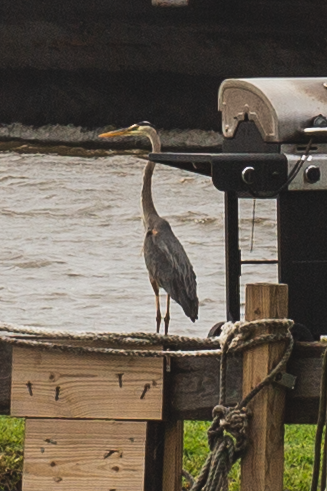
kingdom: Animalia
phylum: Chordata
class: Aves
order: Pelecaniformes
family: Ardeidae
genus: Ardea
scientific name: Ardea herodias
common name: Great blue heron
